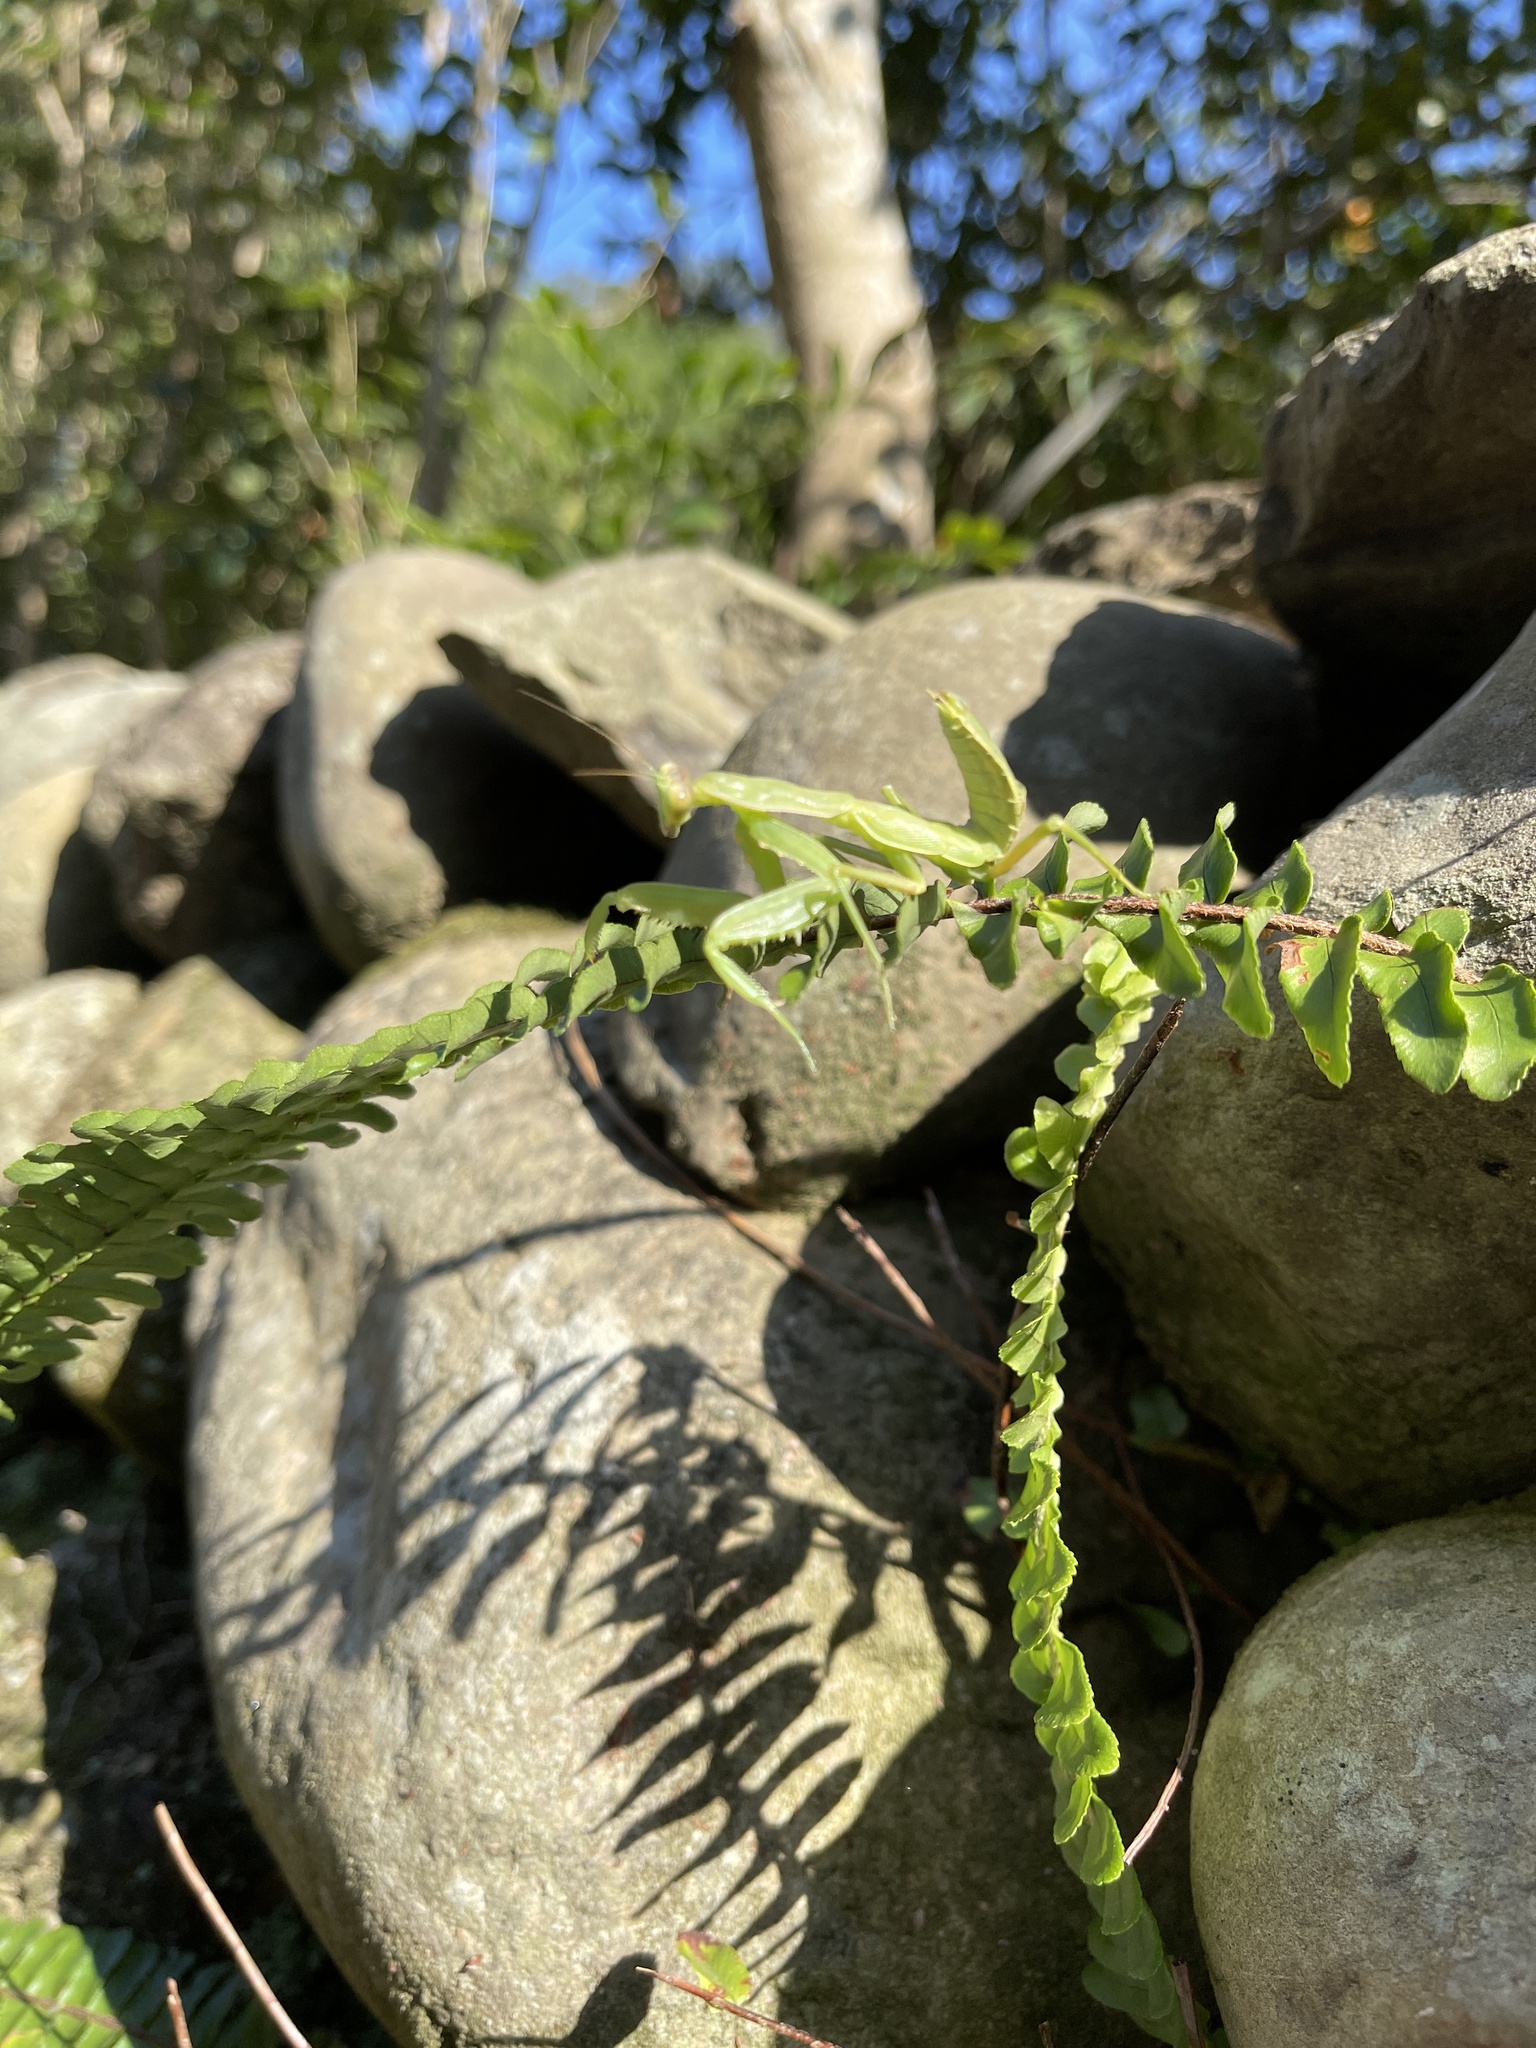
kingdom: Animalia
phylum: Arthropoda
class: Insecta
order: Mantodea
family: Mantidae
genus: Hierodula
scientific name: Hierodula patellifera
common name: Asian mantis
